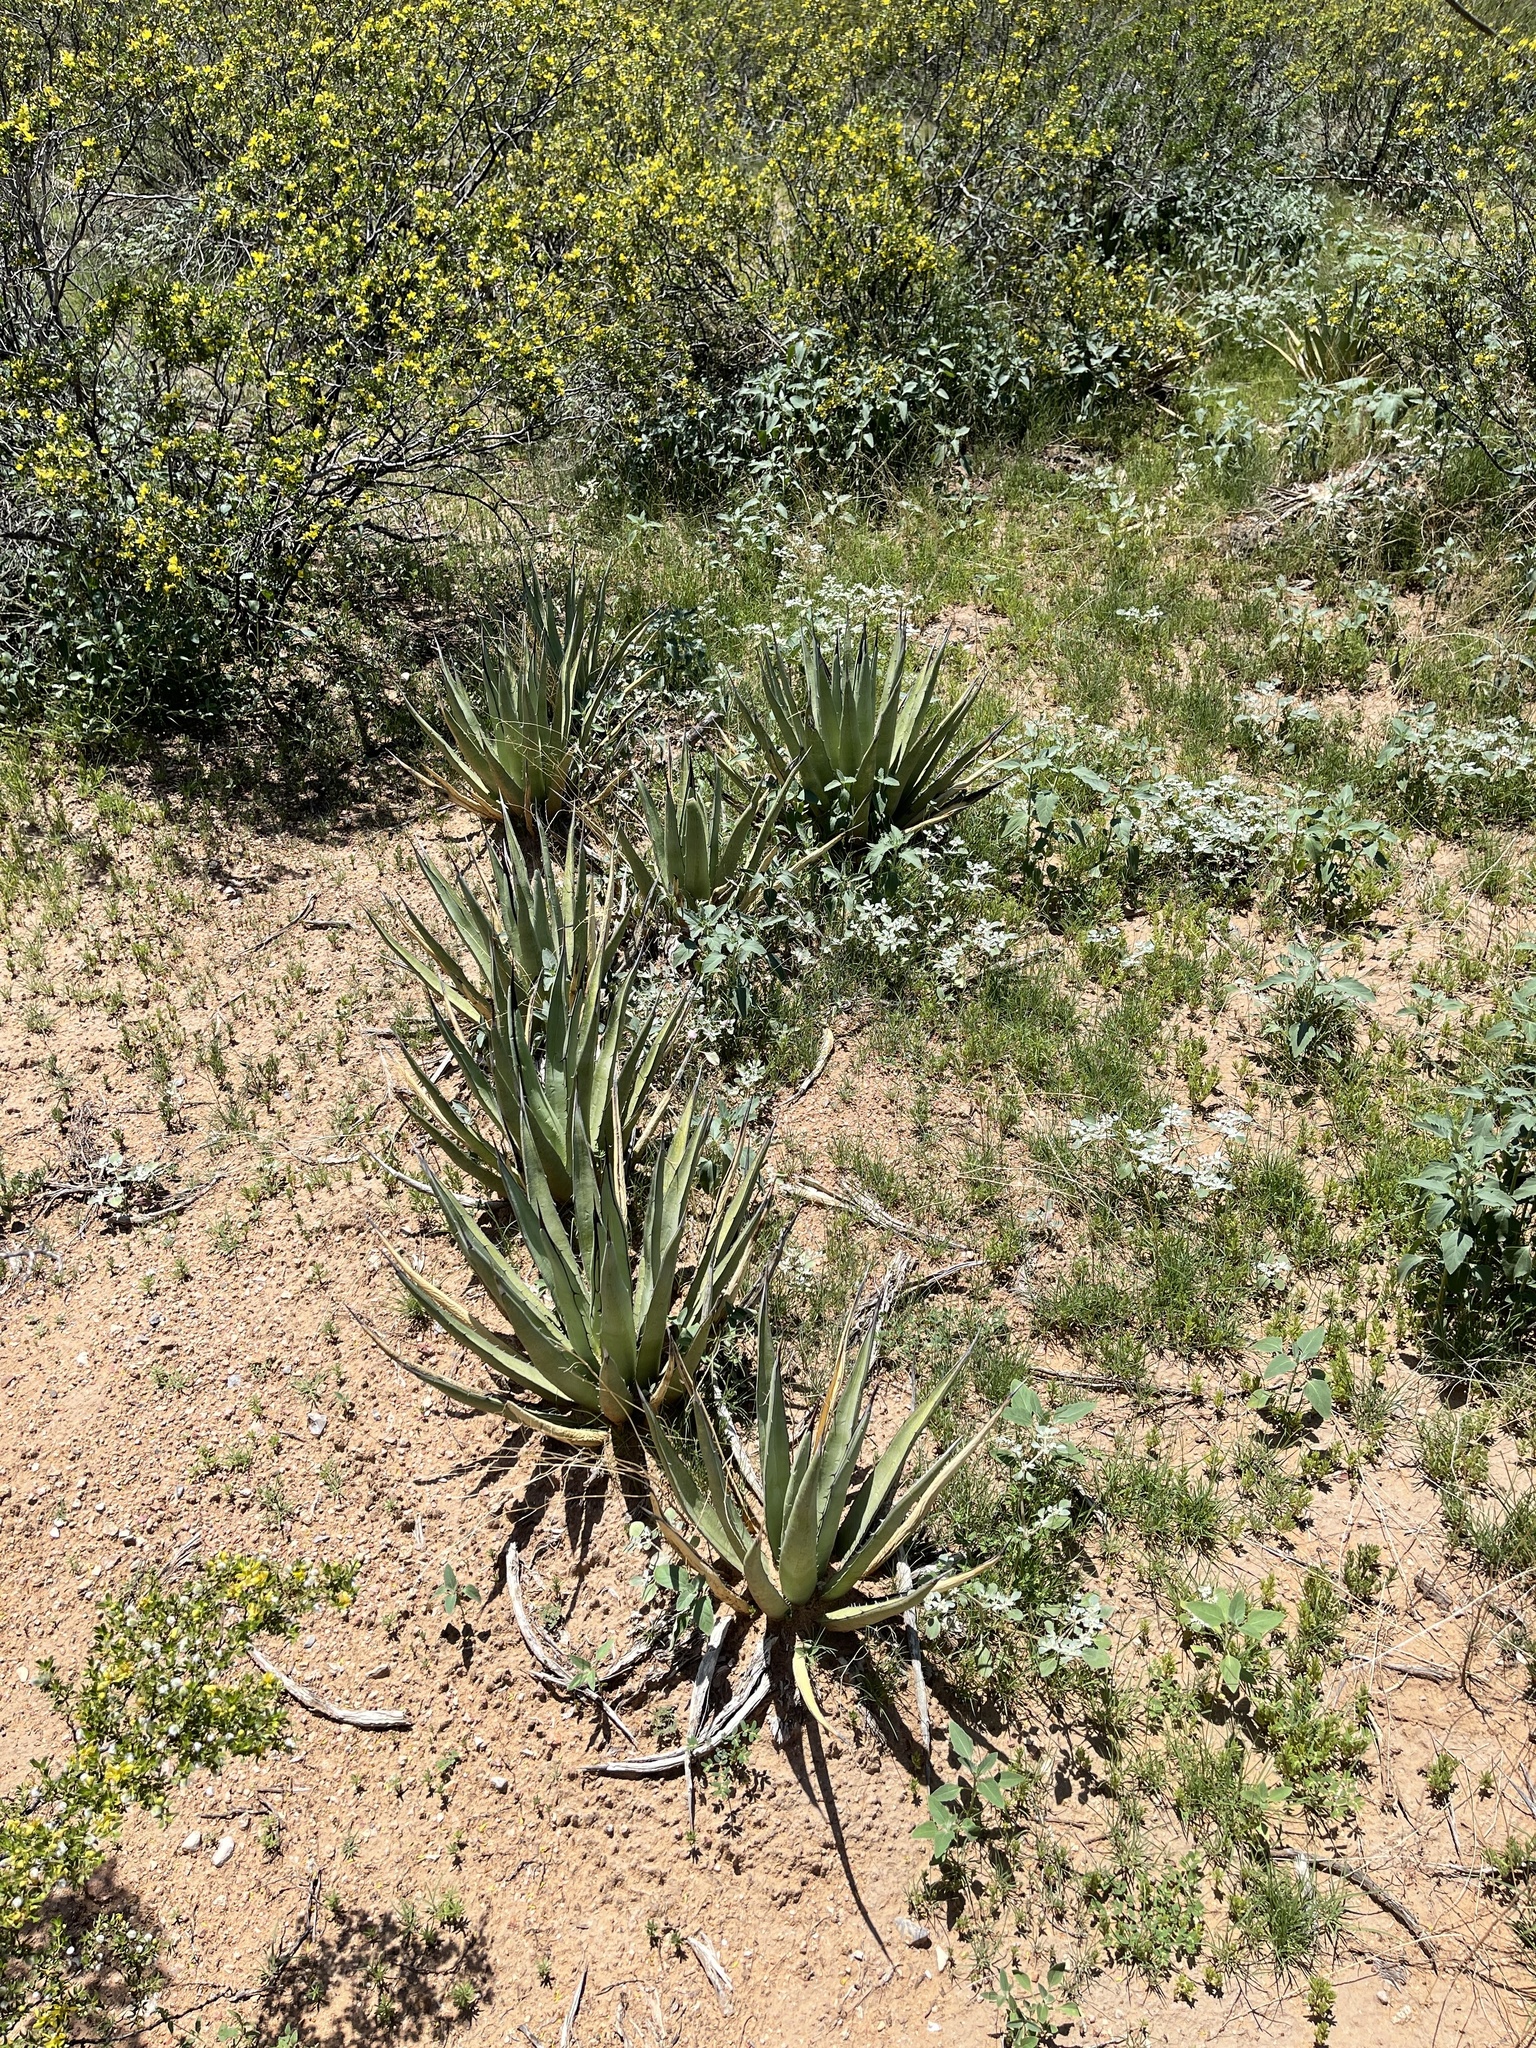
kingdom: Plantae
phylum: Tracheophyta
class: Liliopsida
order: Asparagales
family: Asparagaceae
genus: Agave
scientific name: Agave lechuguilla
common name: Lecheguilla agave
